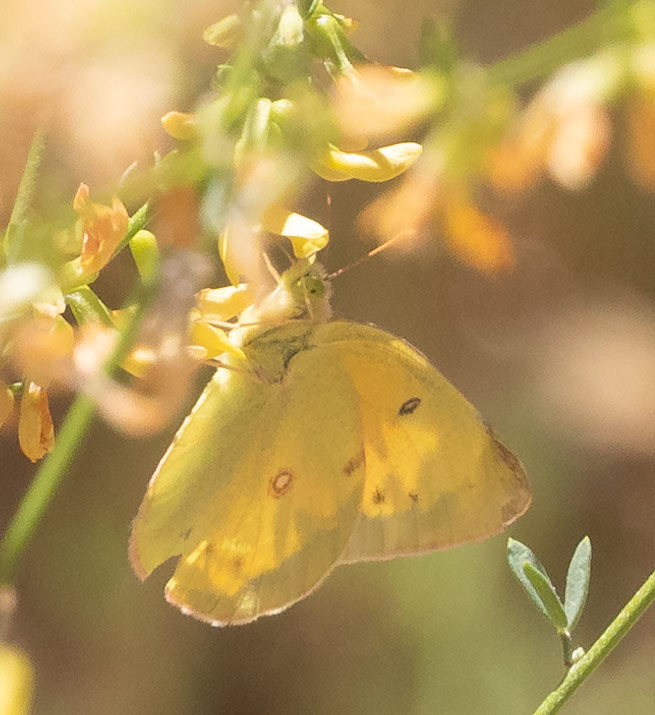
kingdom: Animalia
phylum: Arthropoda
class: Insecta
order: Lepidoptera
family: Pieridae
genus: Colias
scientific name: Colias eurytheme
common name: Alfalfa butterfly
